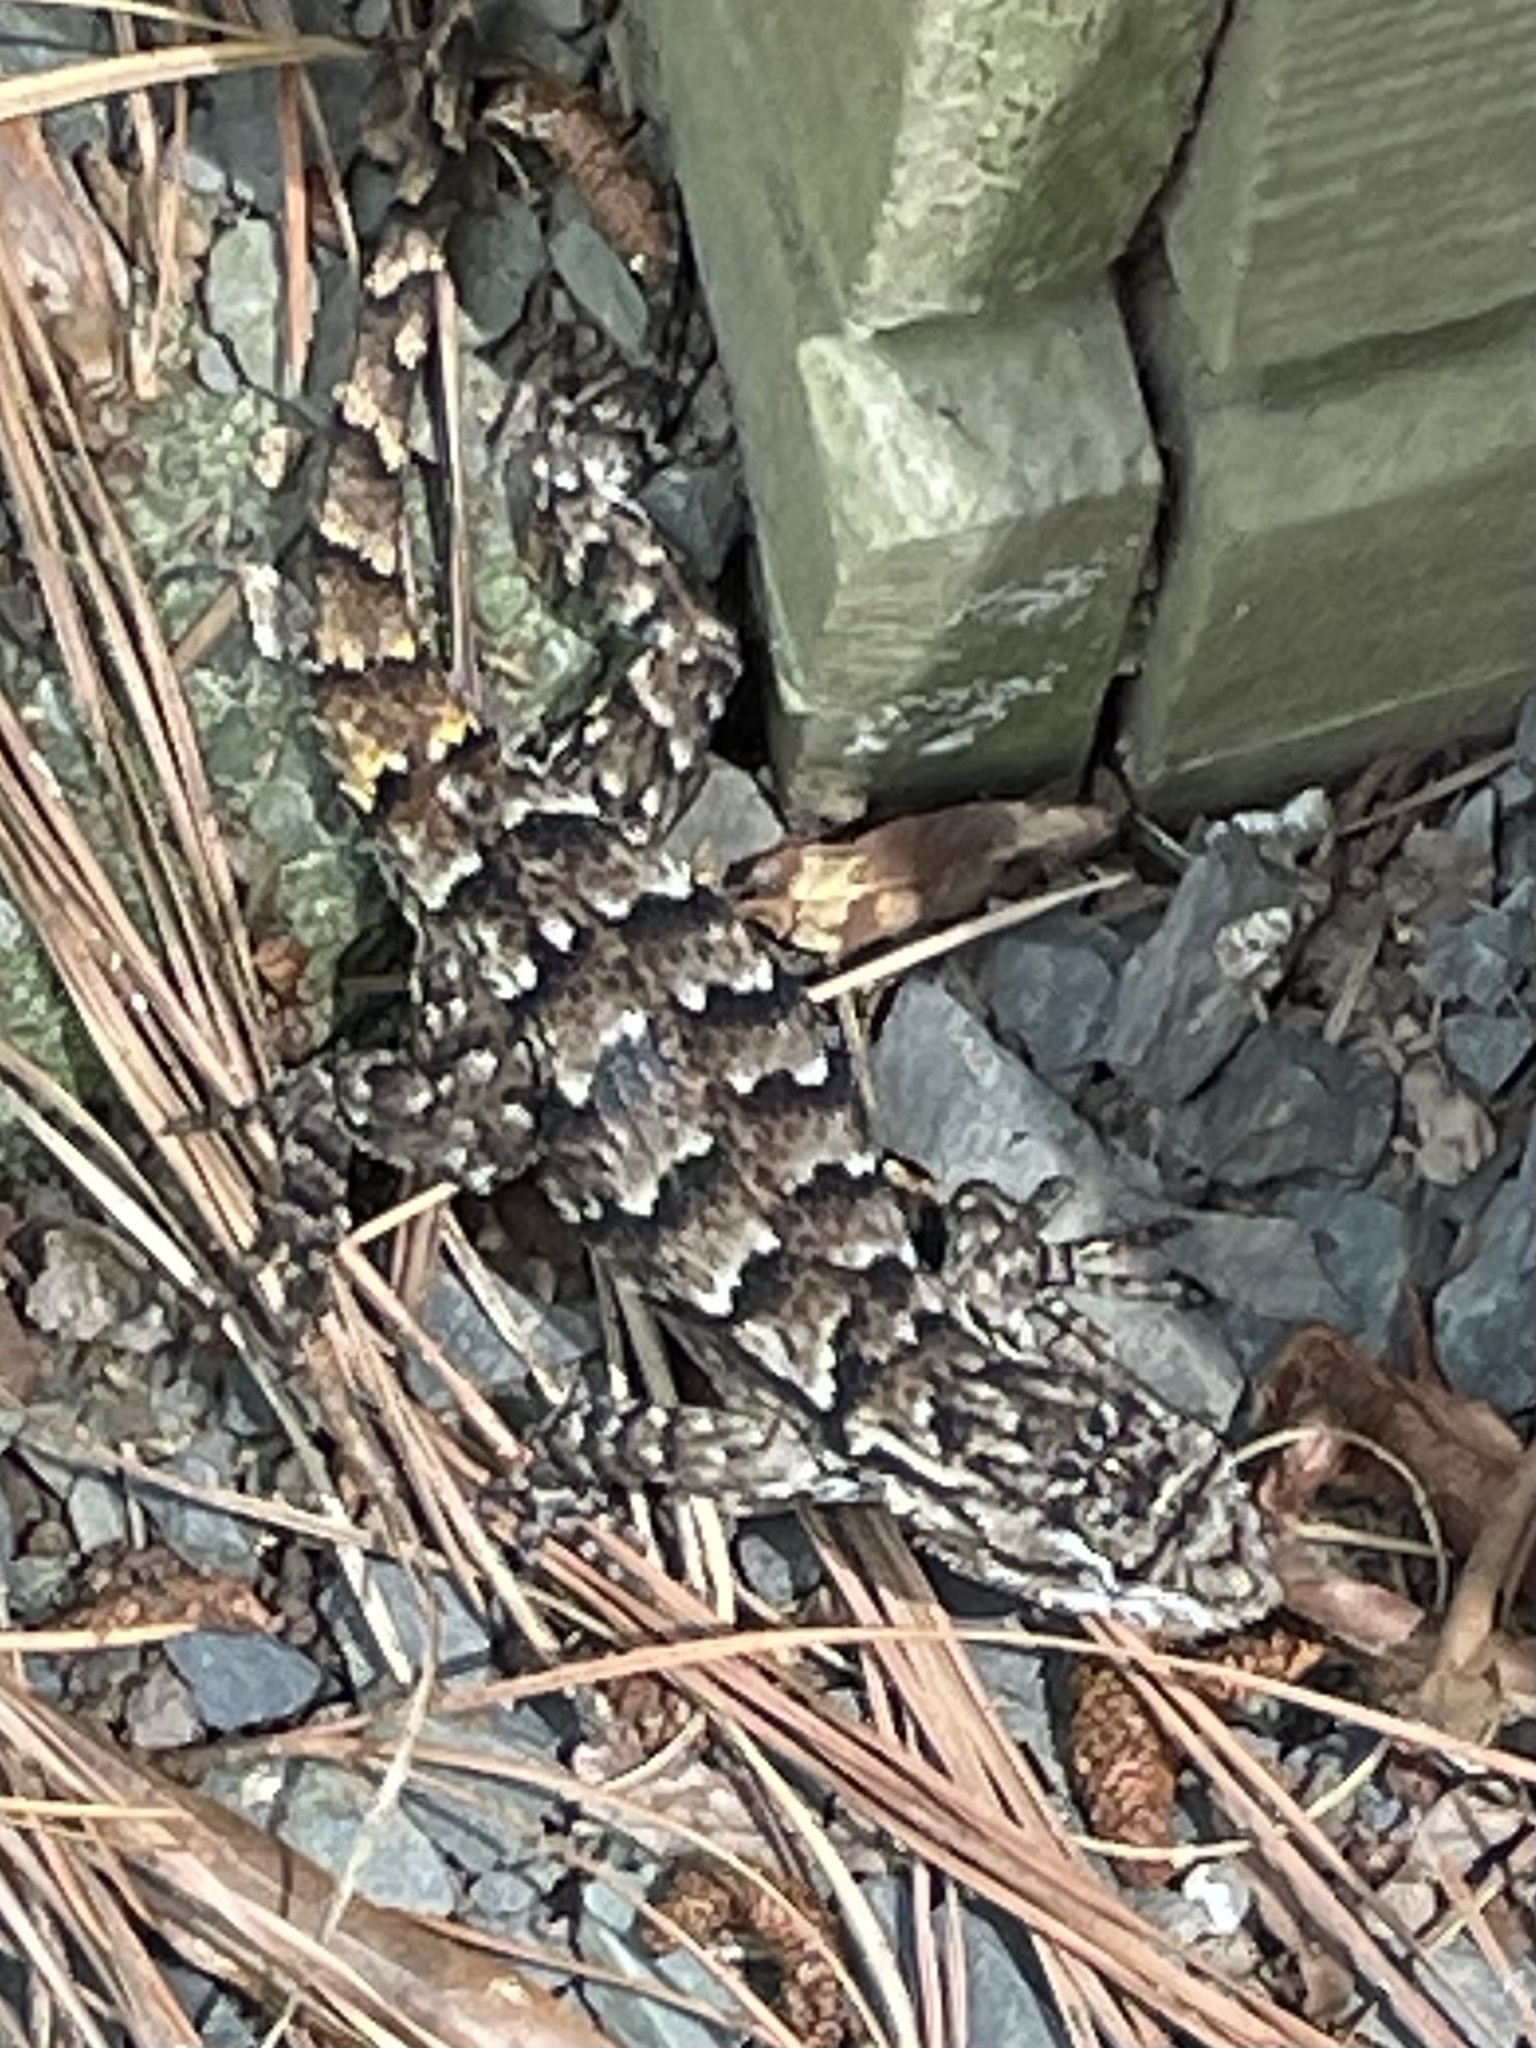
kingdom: Animalia
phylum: Chordata
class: Squamata
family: Phrynosomatidae
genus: Sceloporus
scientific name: Sceloporus undulatus
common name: Eastern fence lizard
